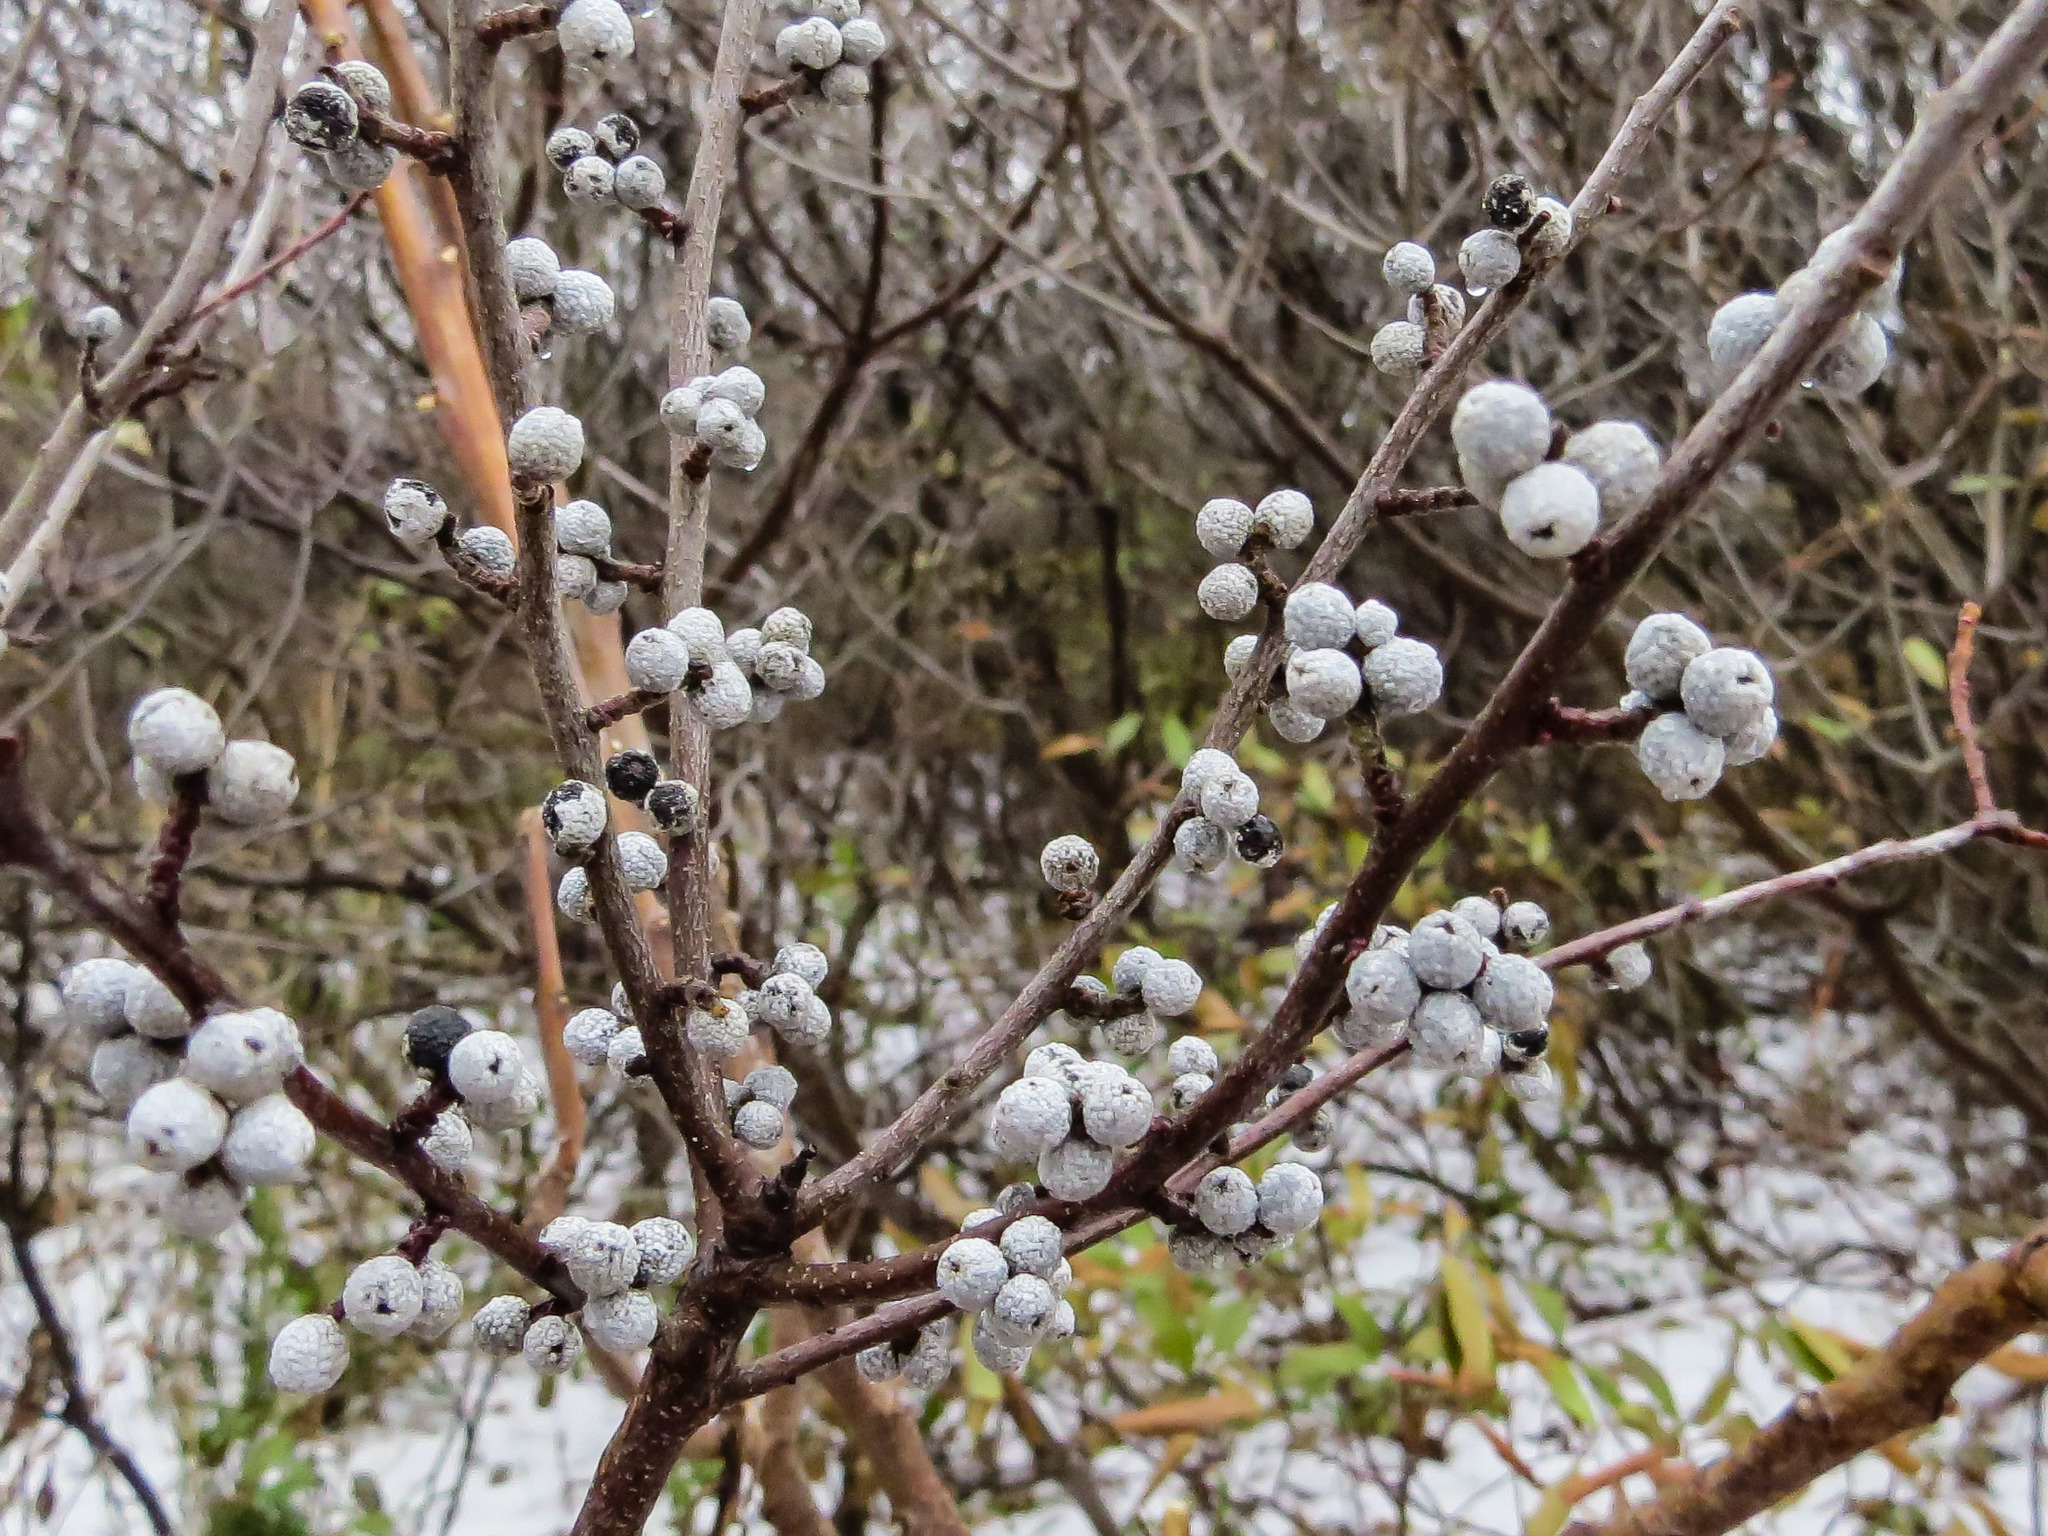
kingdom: Plantae
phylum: Tracheophyta
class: Magnoliopsida
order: Fagales
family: Myricaceae
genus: Morella
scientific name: Morella pensylvanica
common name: Northern bayberry
